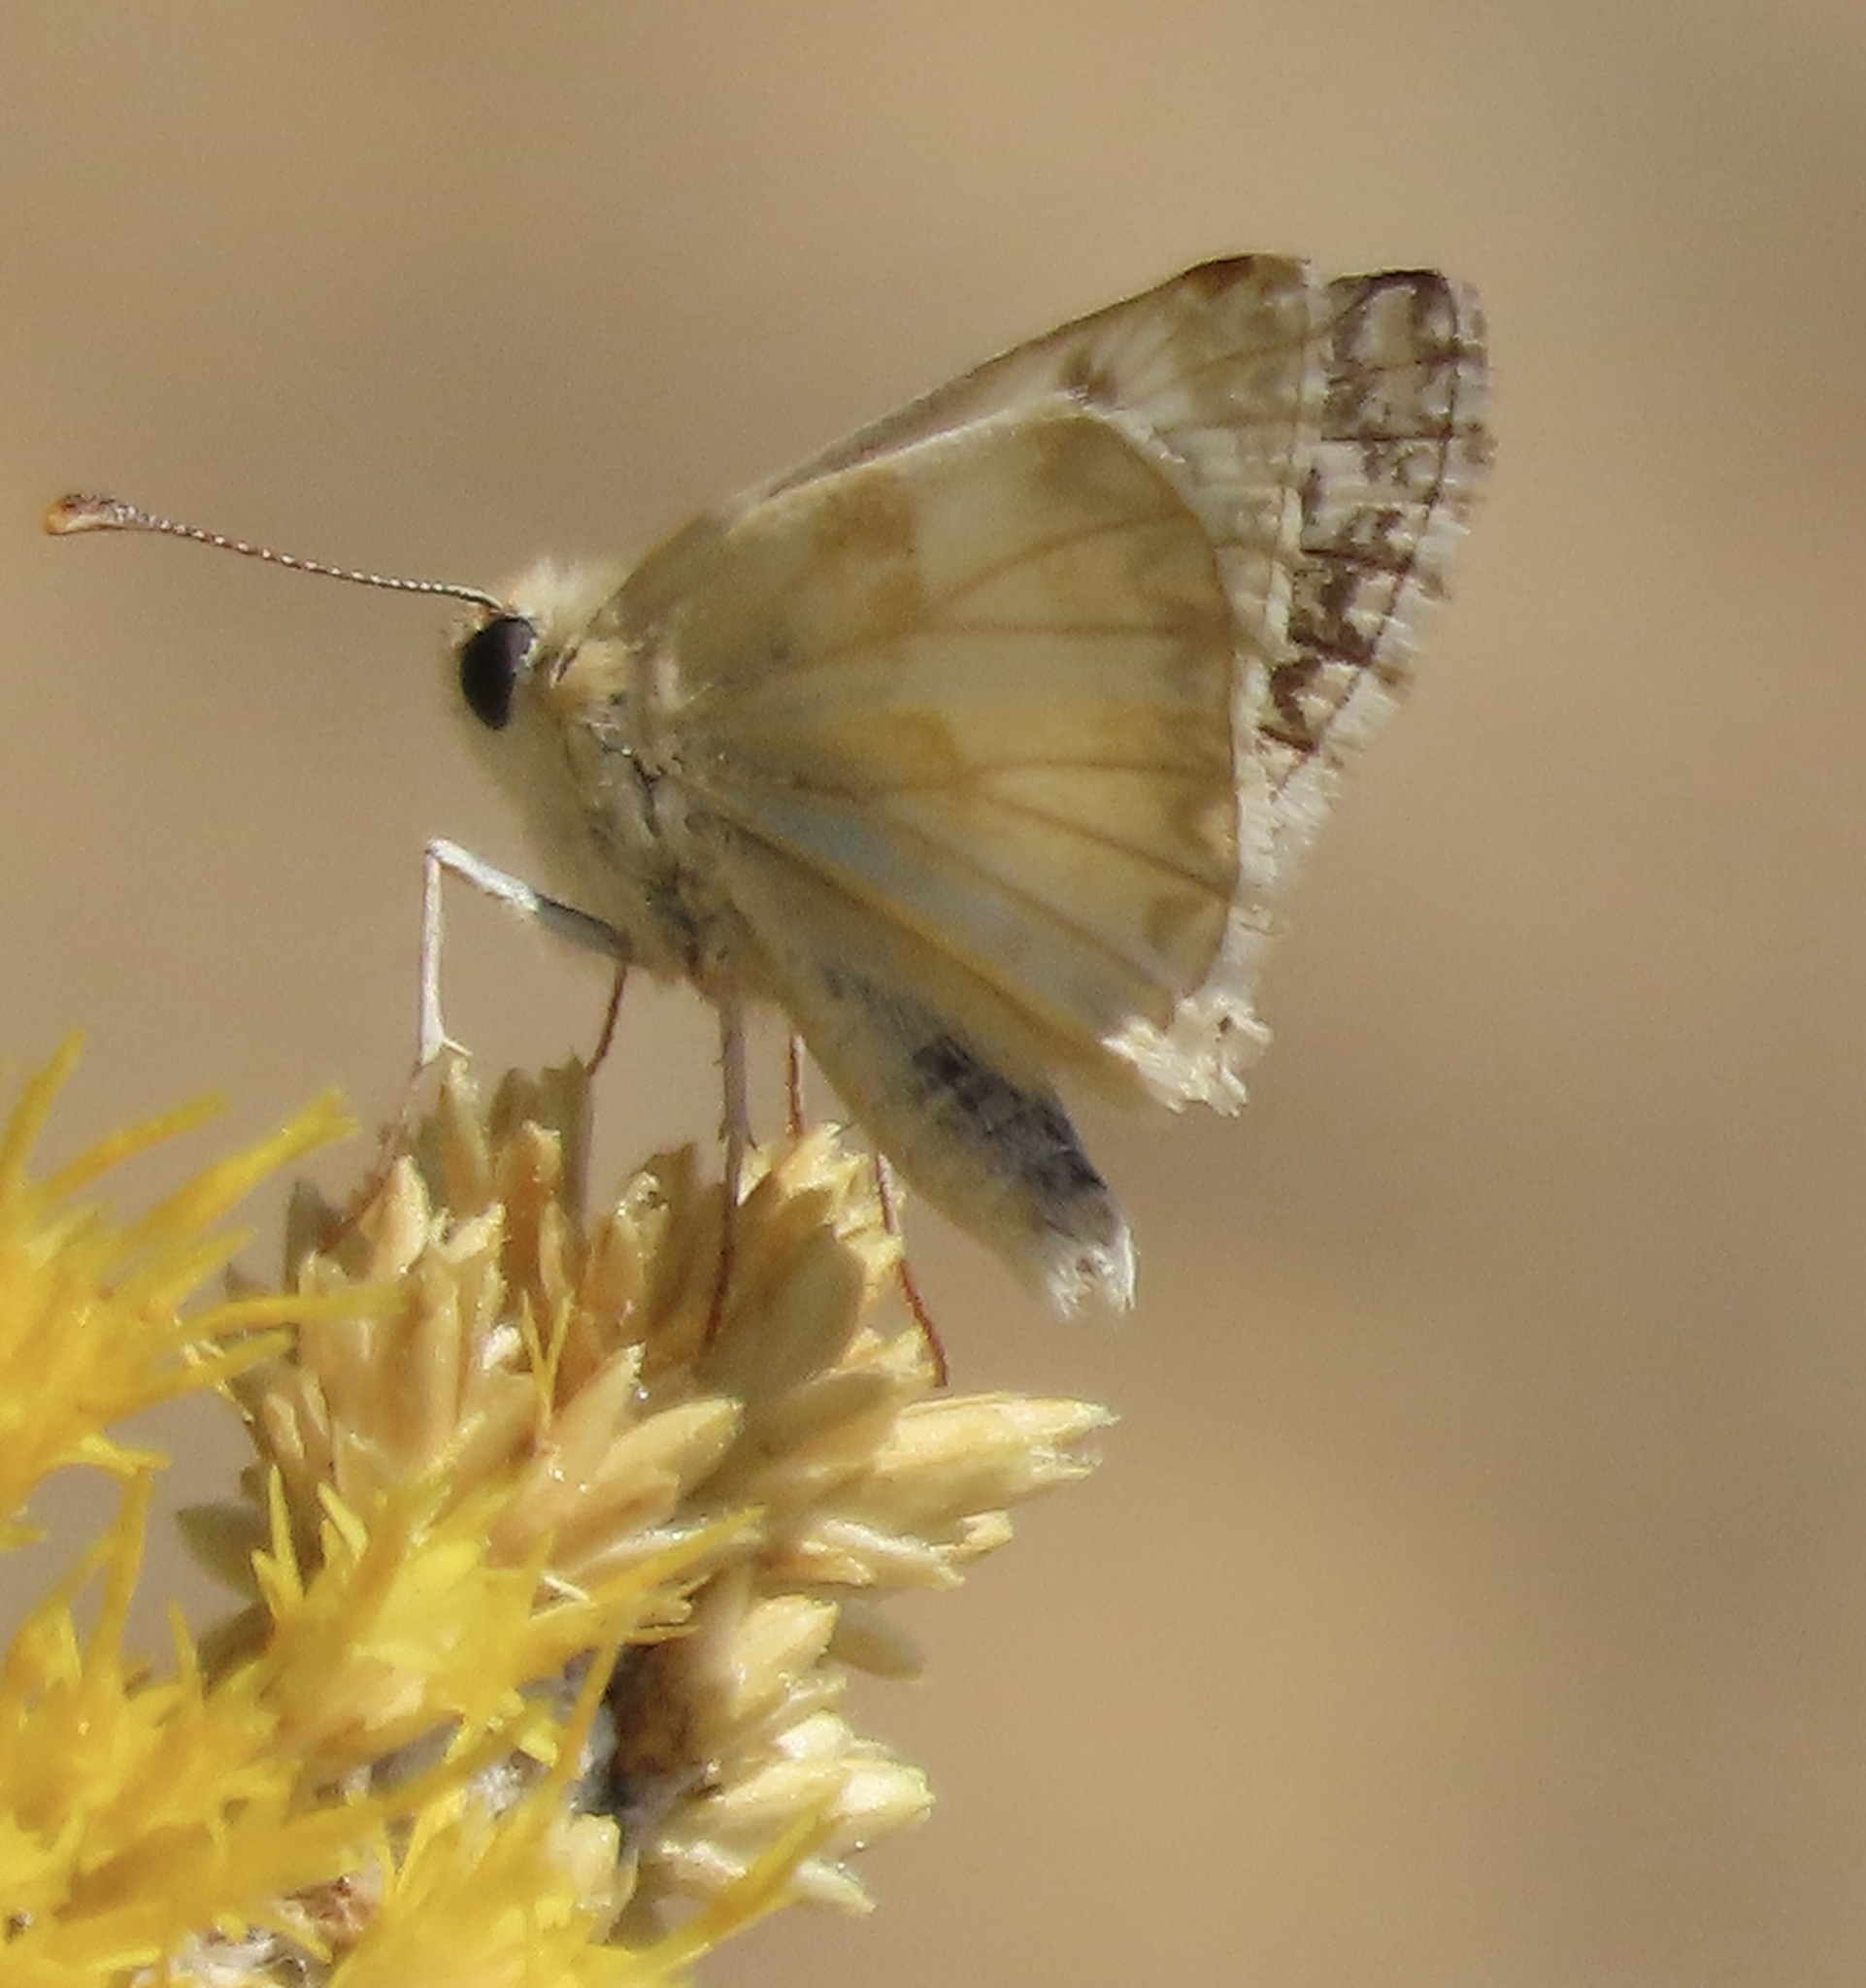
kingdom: Animalia
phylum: Arthropoda
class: Insecta
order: Lepidoptera
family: Hesperiidae
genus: Heliopetes
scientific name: Heliopetes ericetorum
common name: Northern white-skipper
